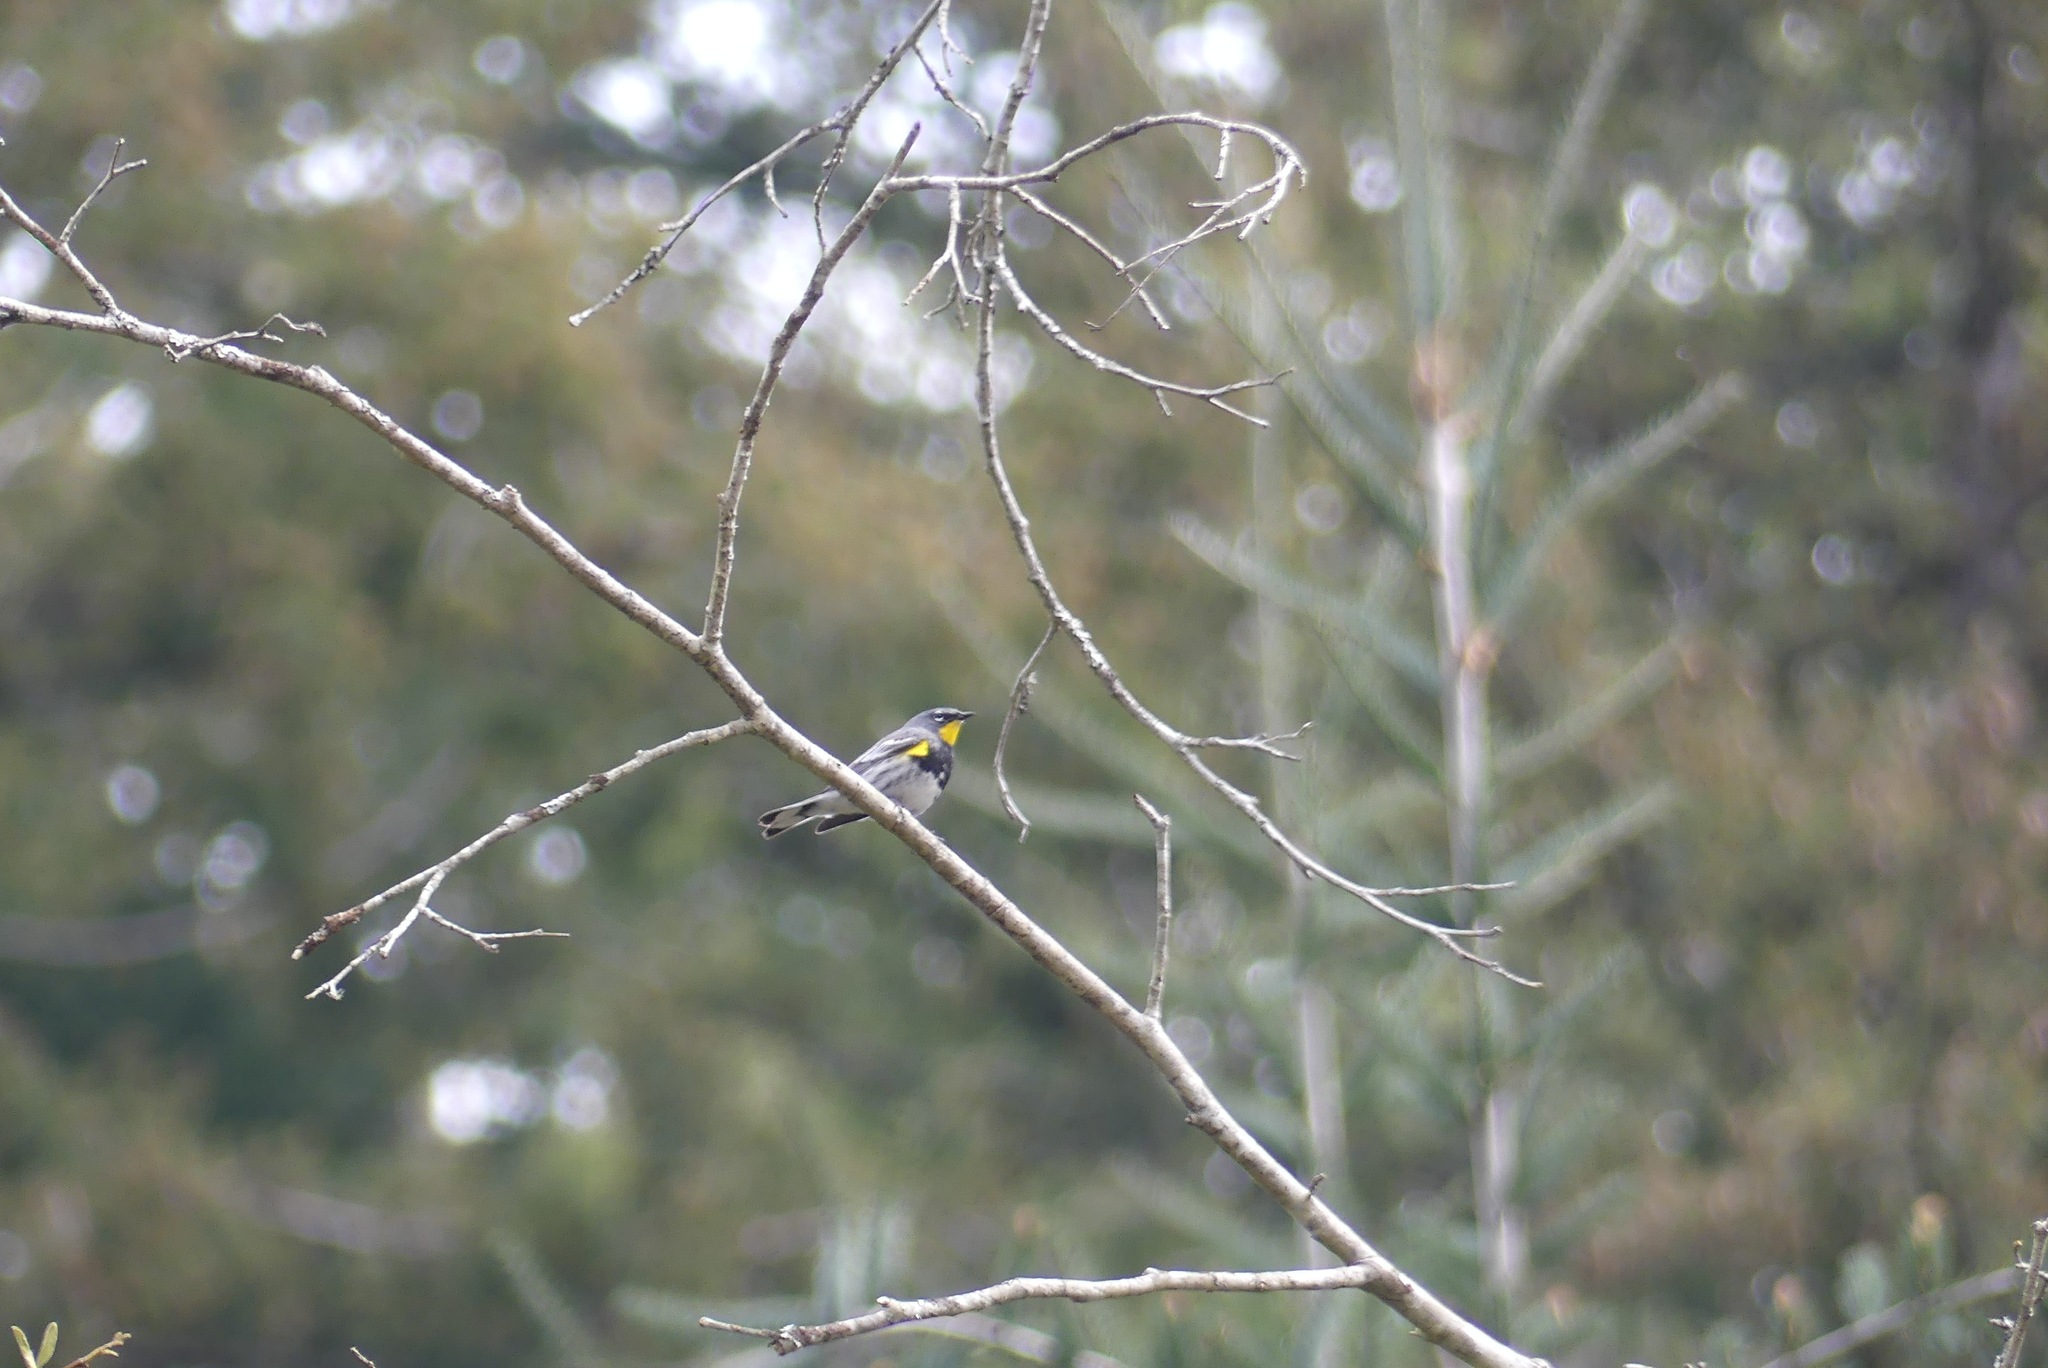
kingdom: Animalia
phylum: Chordata
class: Aves
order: Passeriformes
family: Parulidae
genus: Setophaga
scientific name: Setophaga coronata
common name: Myrtle warbler
